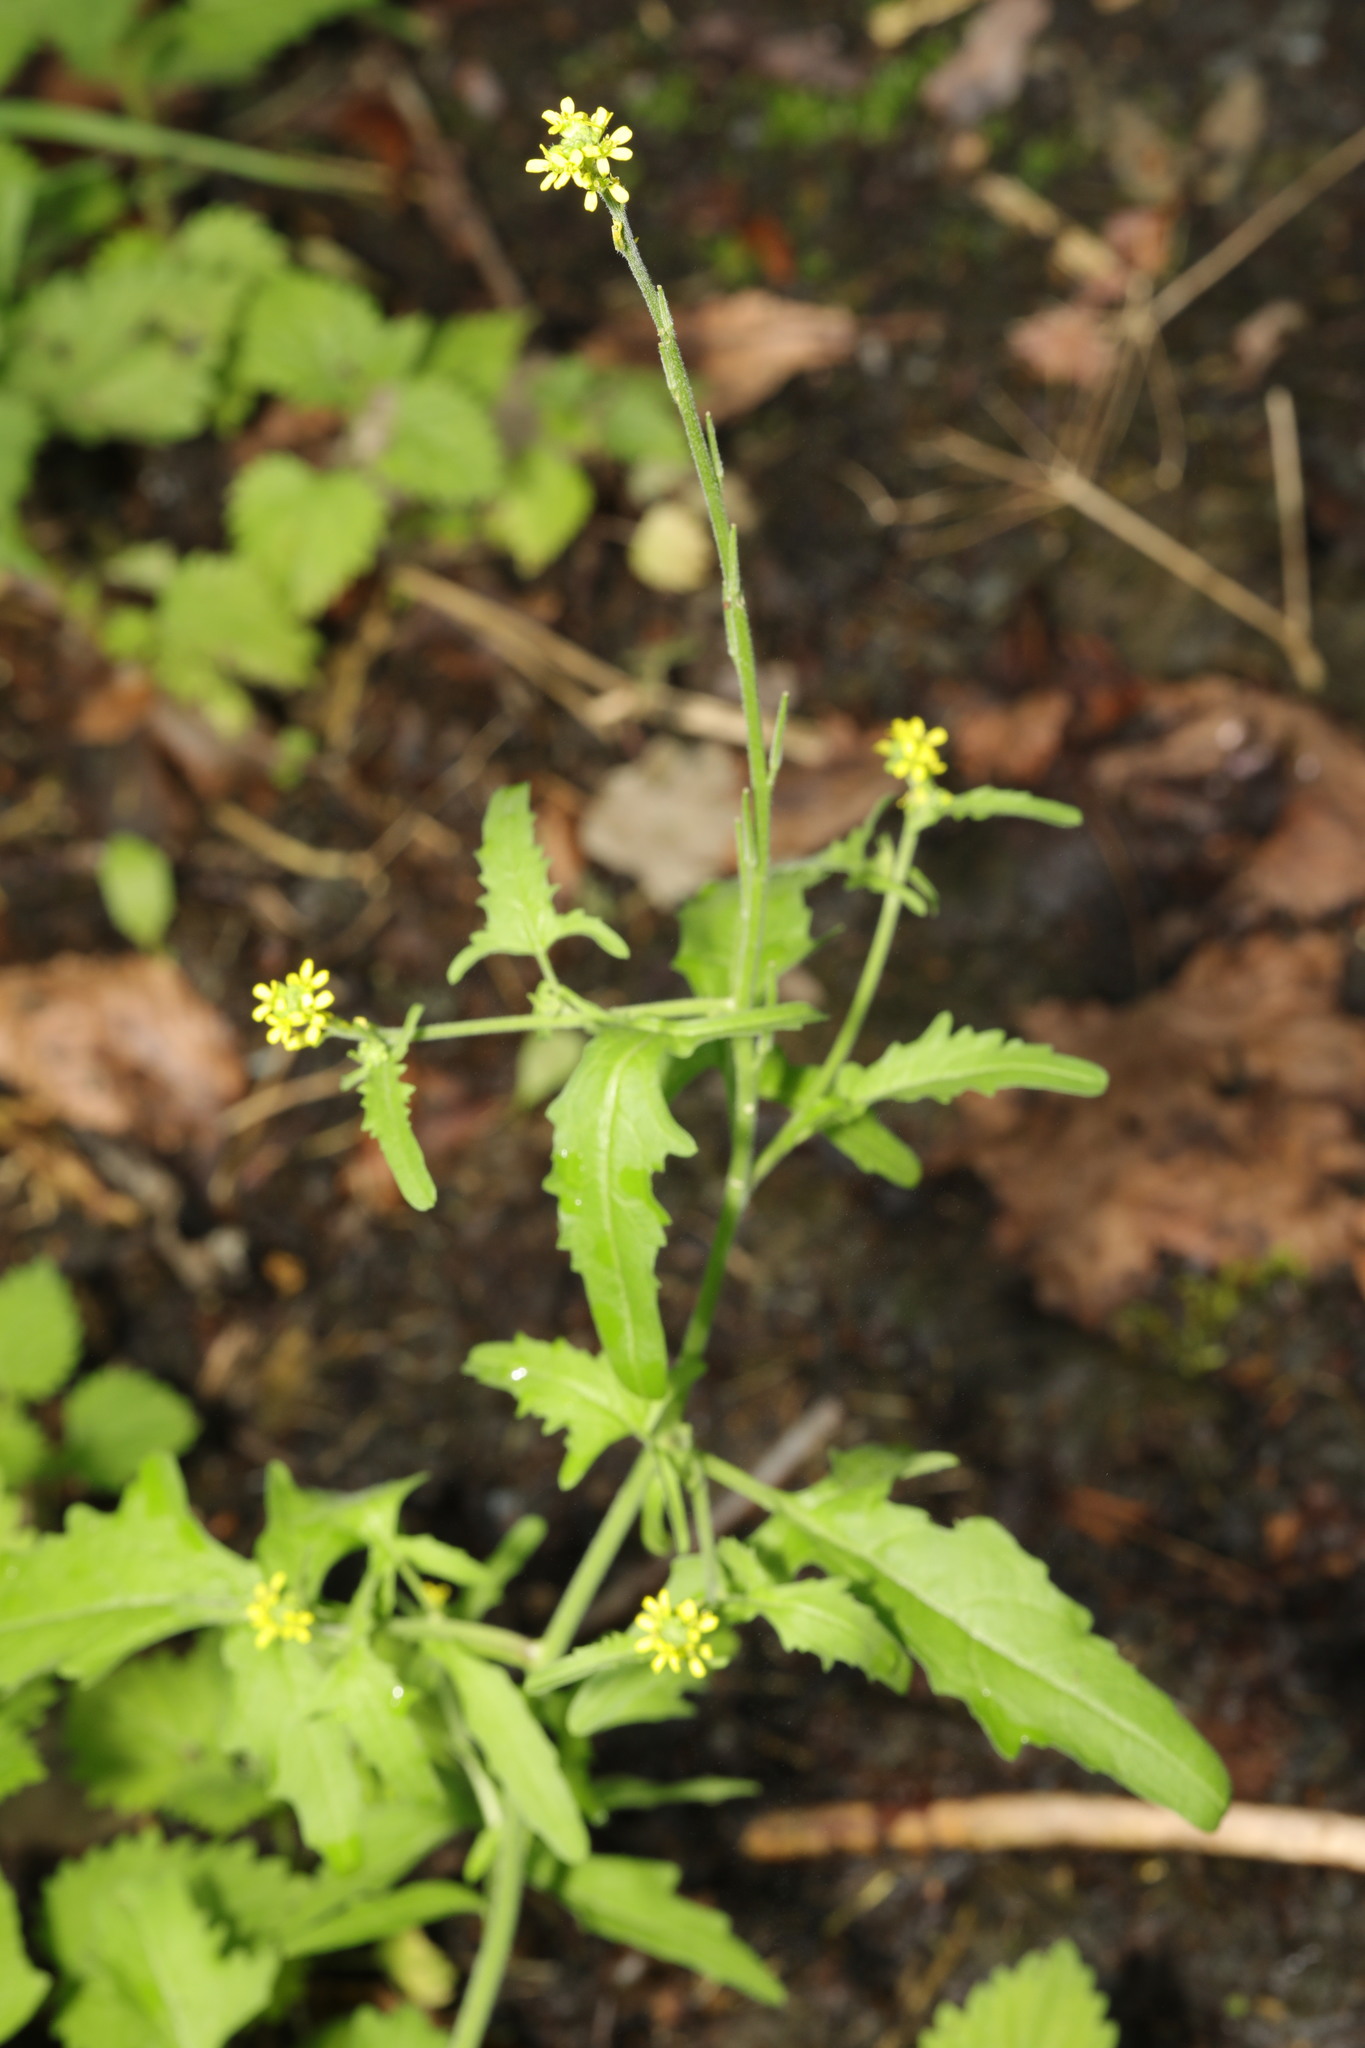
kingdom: Plantae
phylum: Tracheophyta
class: Magnoliopsida
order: Brassicales
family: Brassicaceae
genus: Sisymbrium
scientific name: Sisymbrium officinale
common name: Hedge mustard
